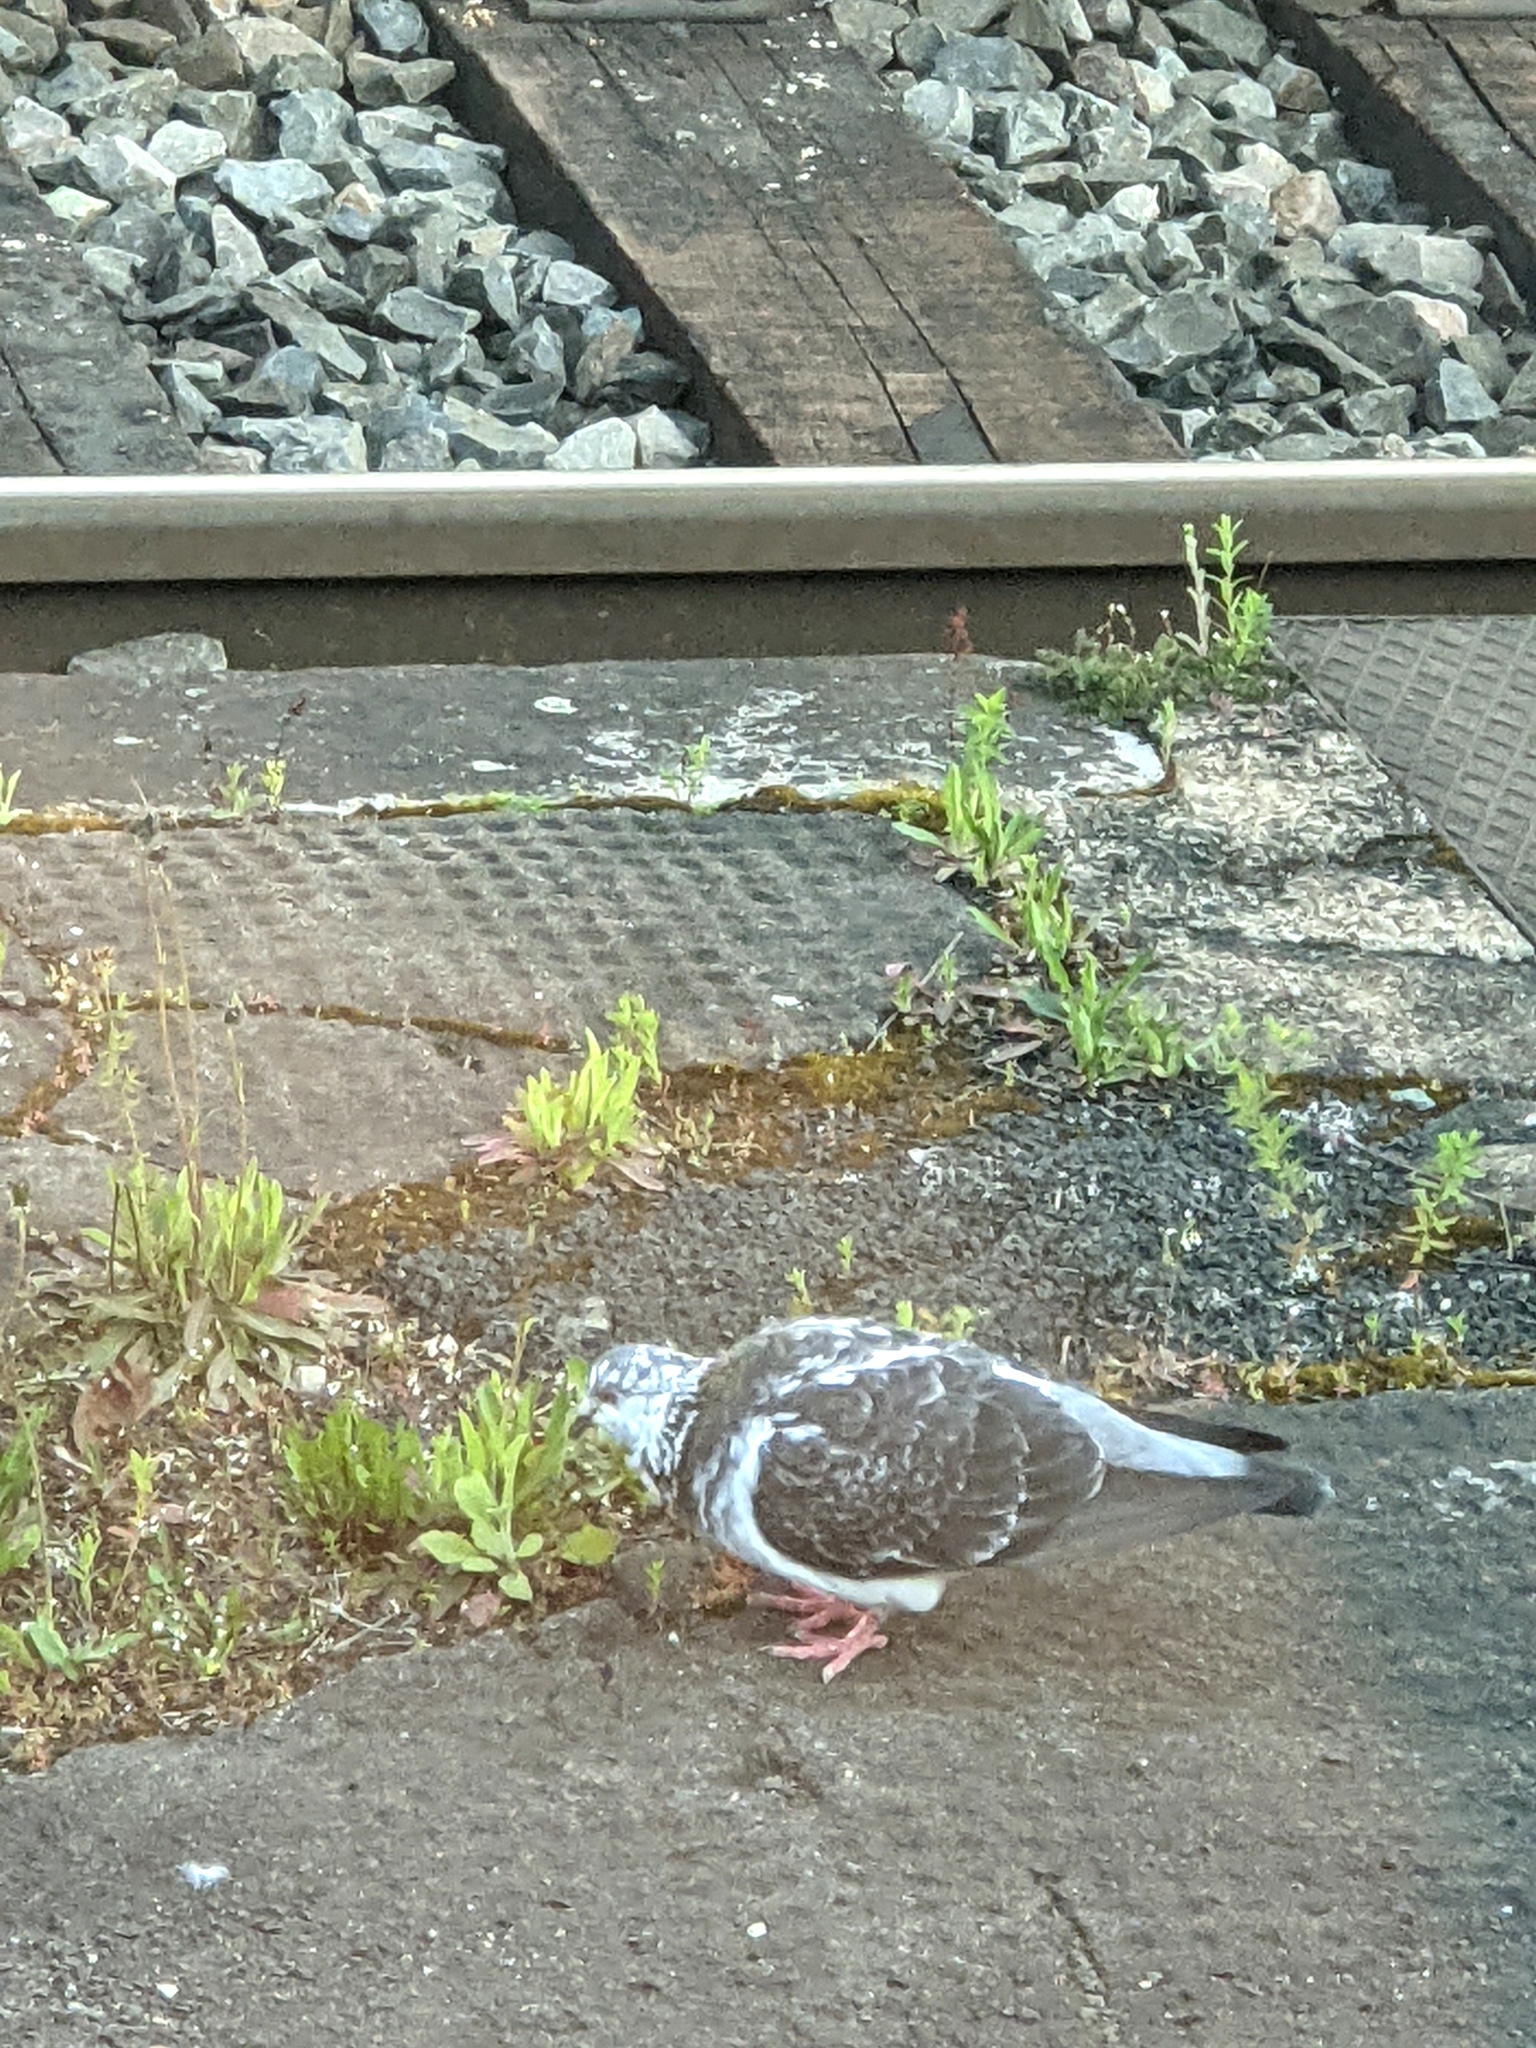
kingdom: Animalia
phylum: Chordata
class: Aves
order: Columbiformes
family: Columbidae
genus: Columba
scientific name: Columba livia
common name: Rock pigeon
